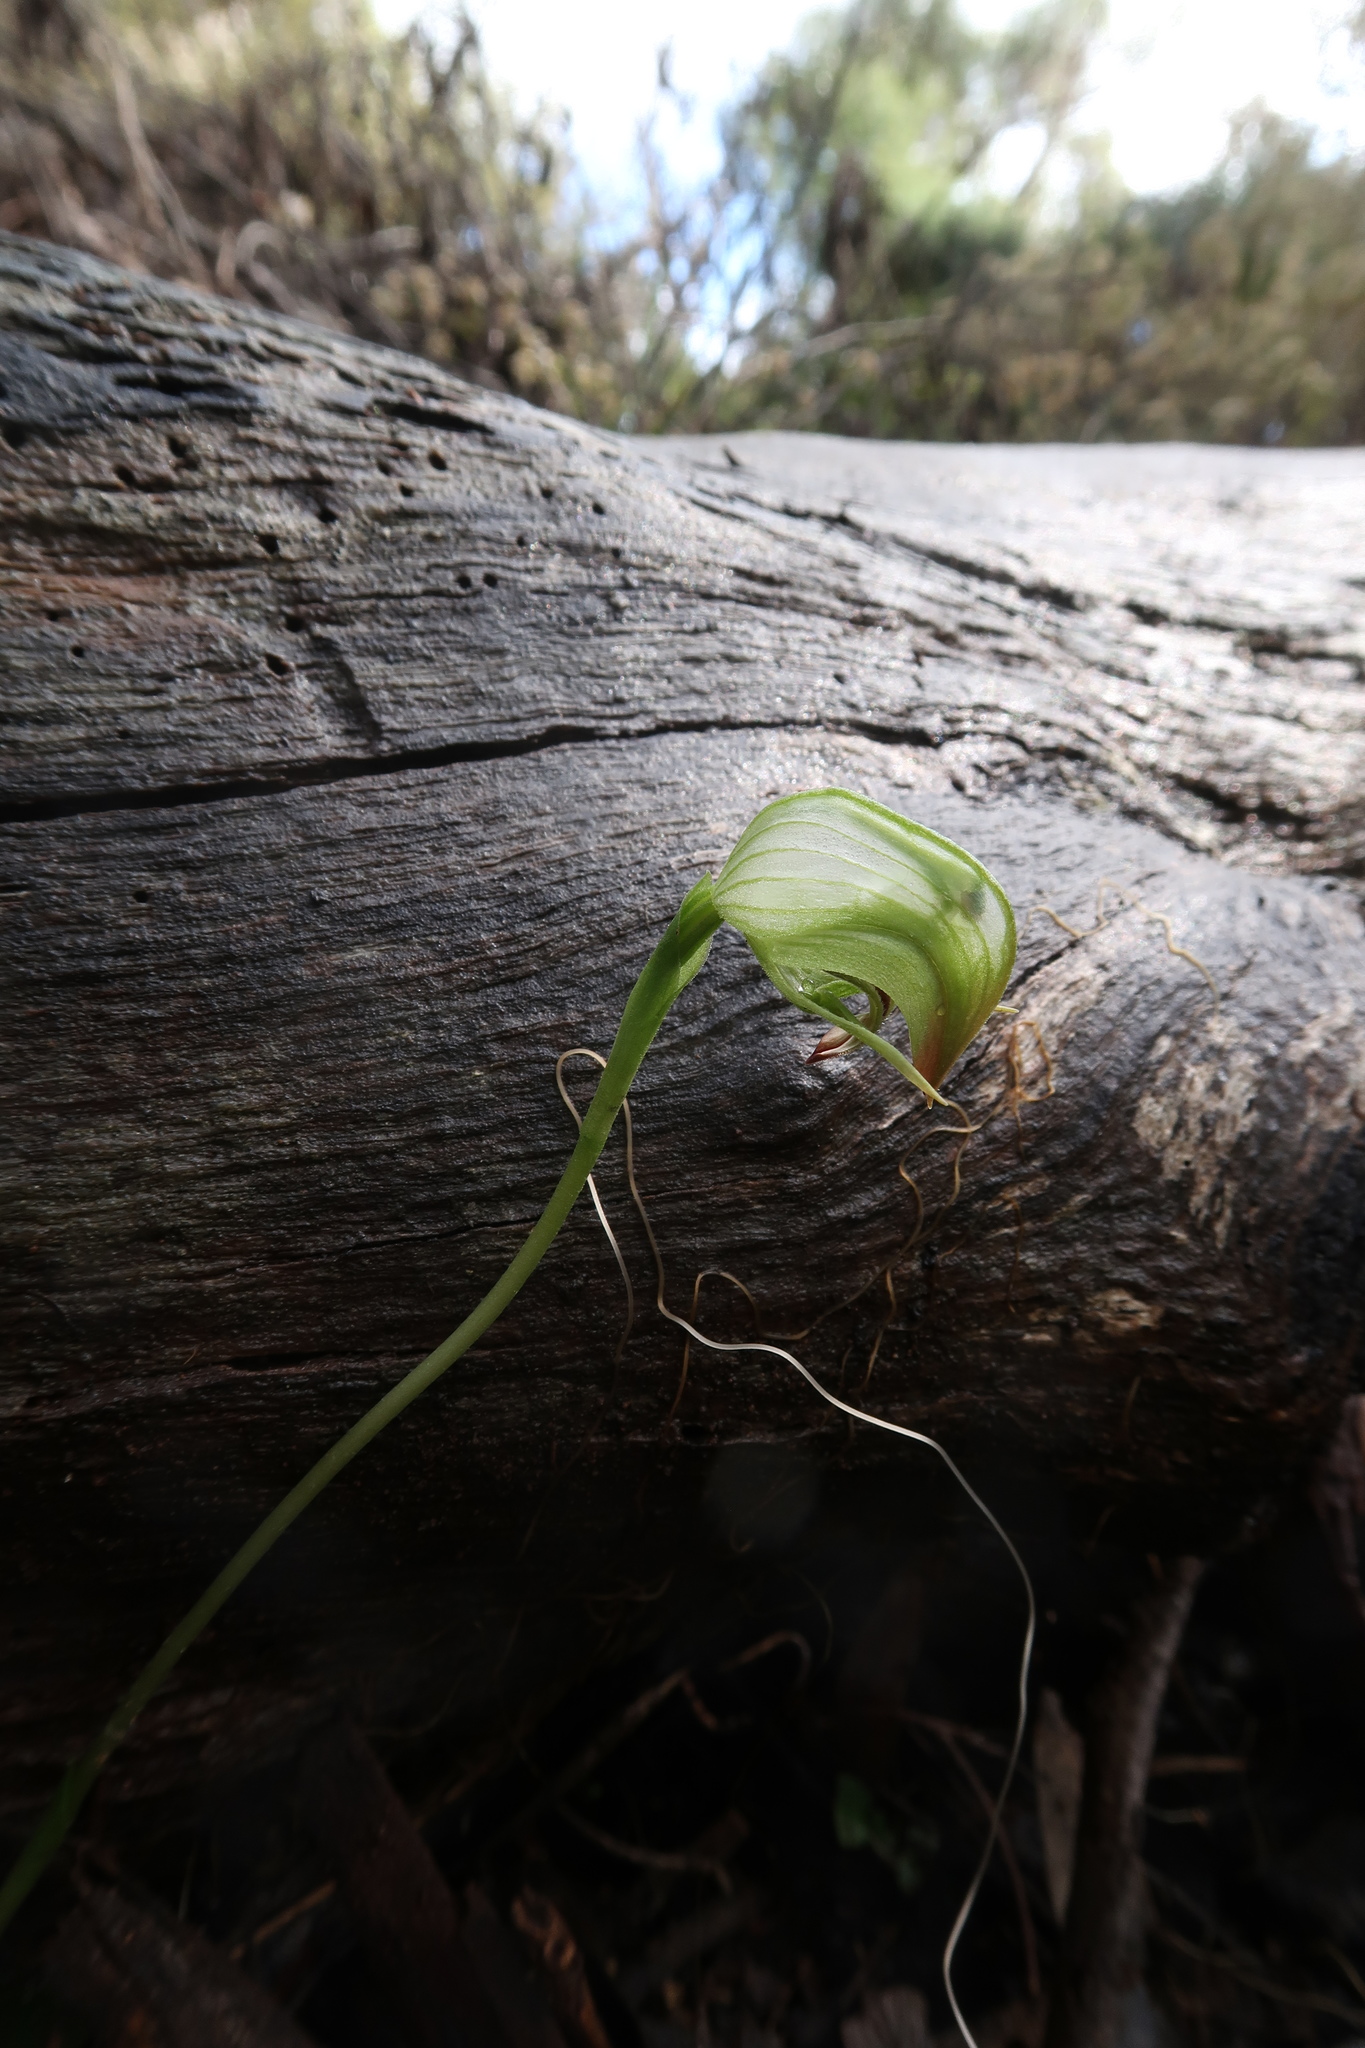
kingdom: Plantae
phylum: Tracheophyta
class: Liliopsida
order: Asparagales
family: Orchidaceae
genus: Pterostylis
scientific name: Pterostylis nutans
